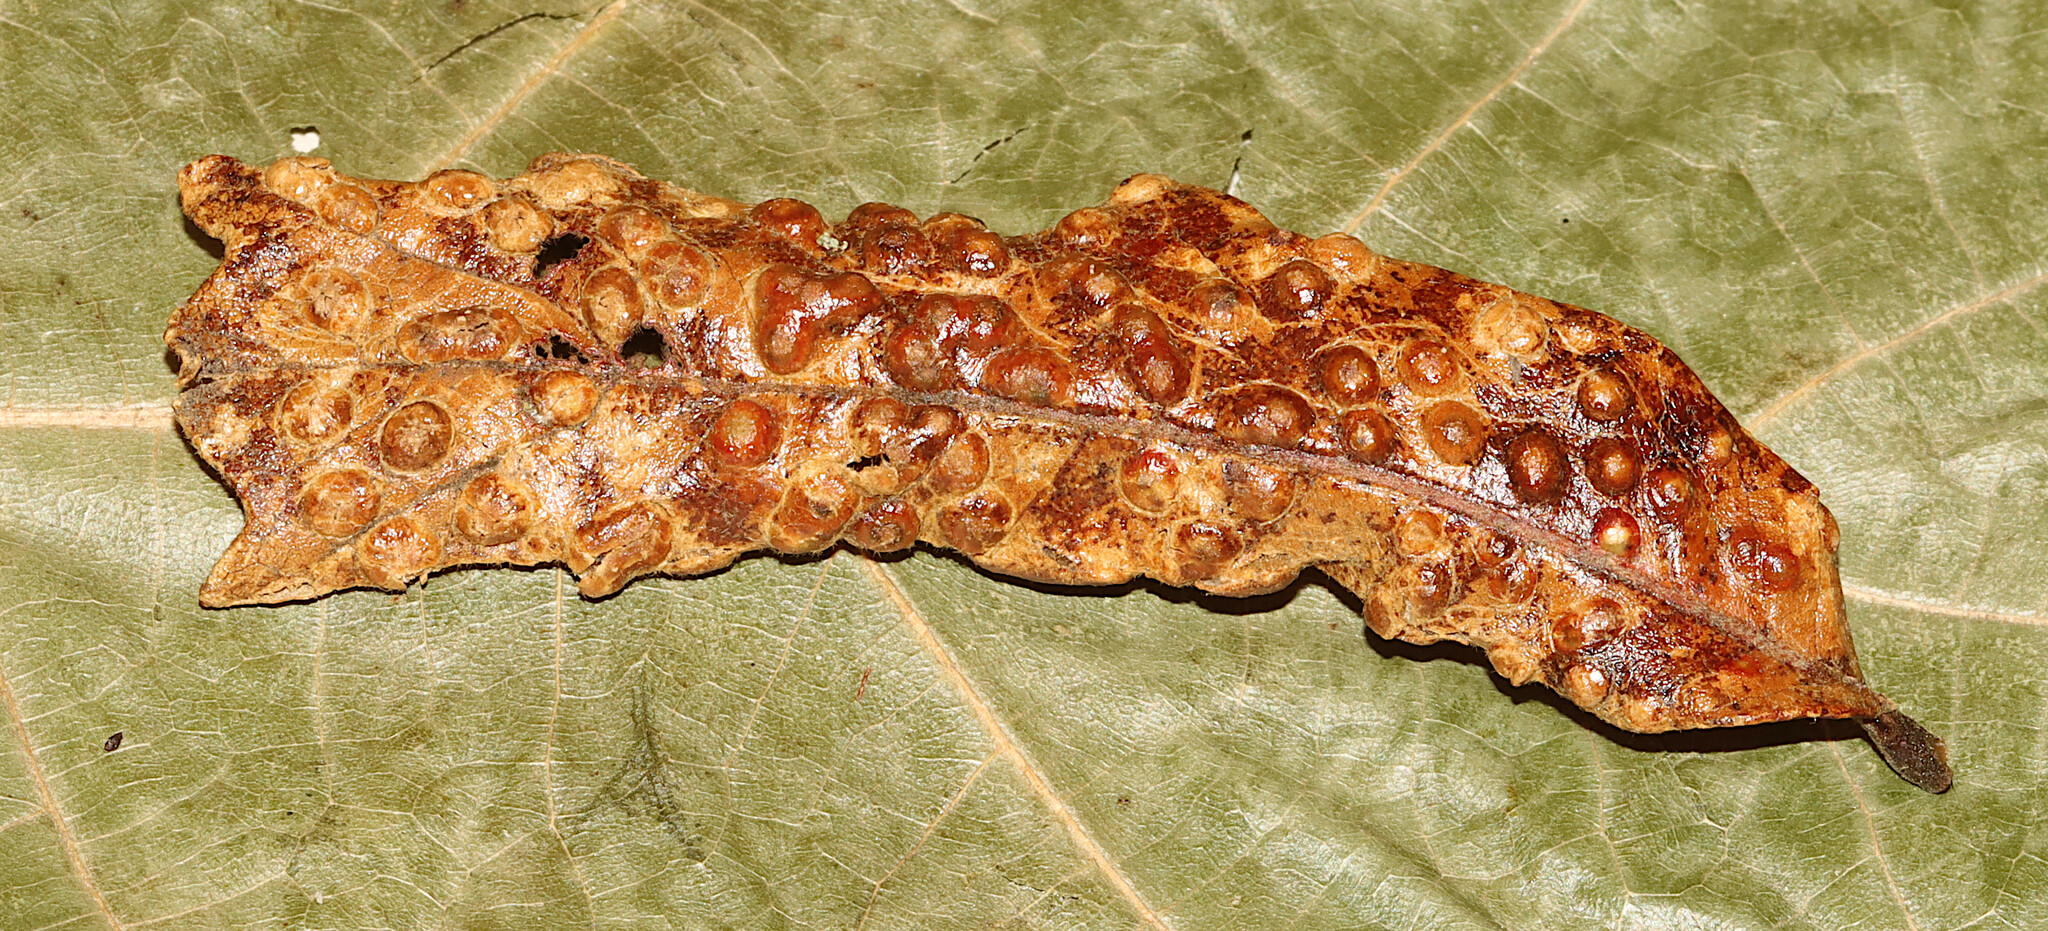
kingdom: Animalia
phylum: Arthropoda
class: Insecta
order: Hymenoptera
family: Cynipidae
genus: Neuroterus
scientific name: Neuroterus quercusverrucarum
